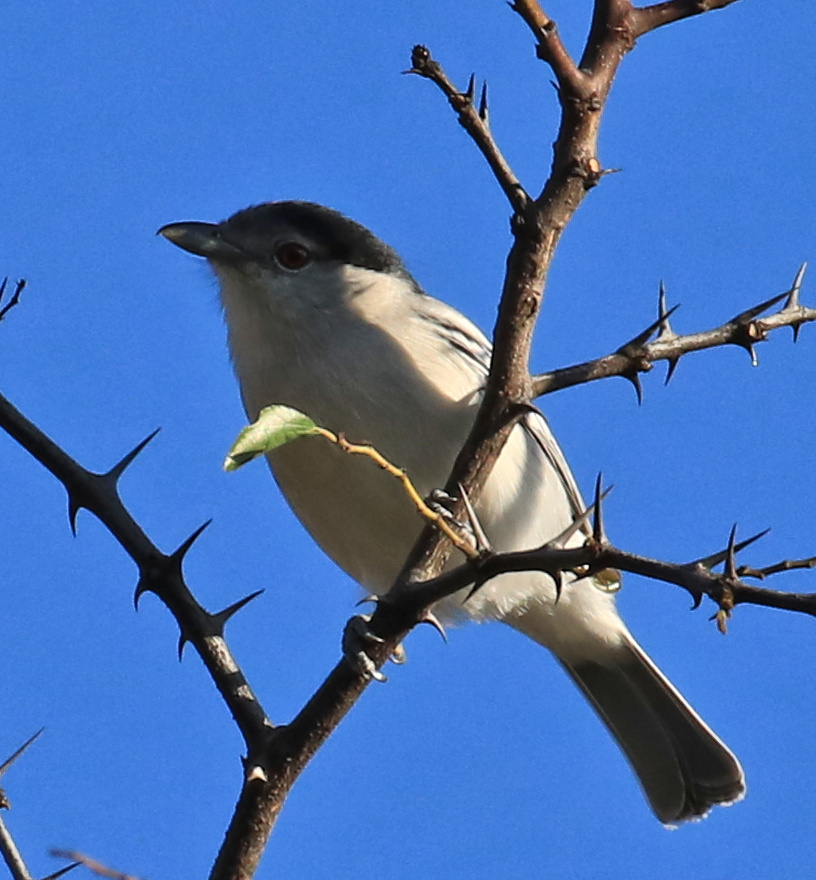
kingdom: Animalia
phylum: Chordata
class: Aves
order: Passeriformes
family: Malaconotidae
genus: Dryoscopus
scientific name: Dryoscopus cubla
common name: Black-backed puffback
